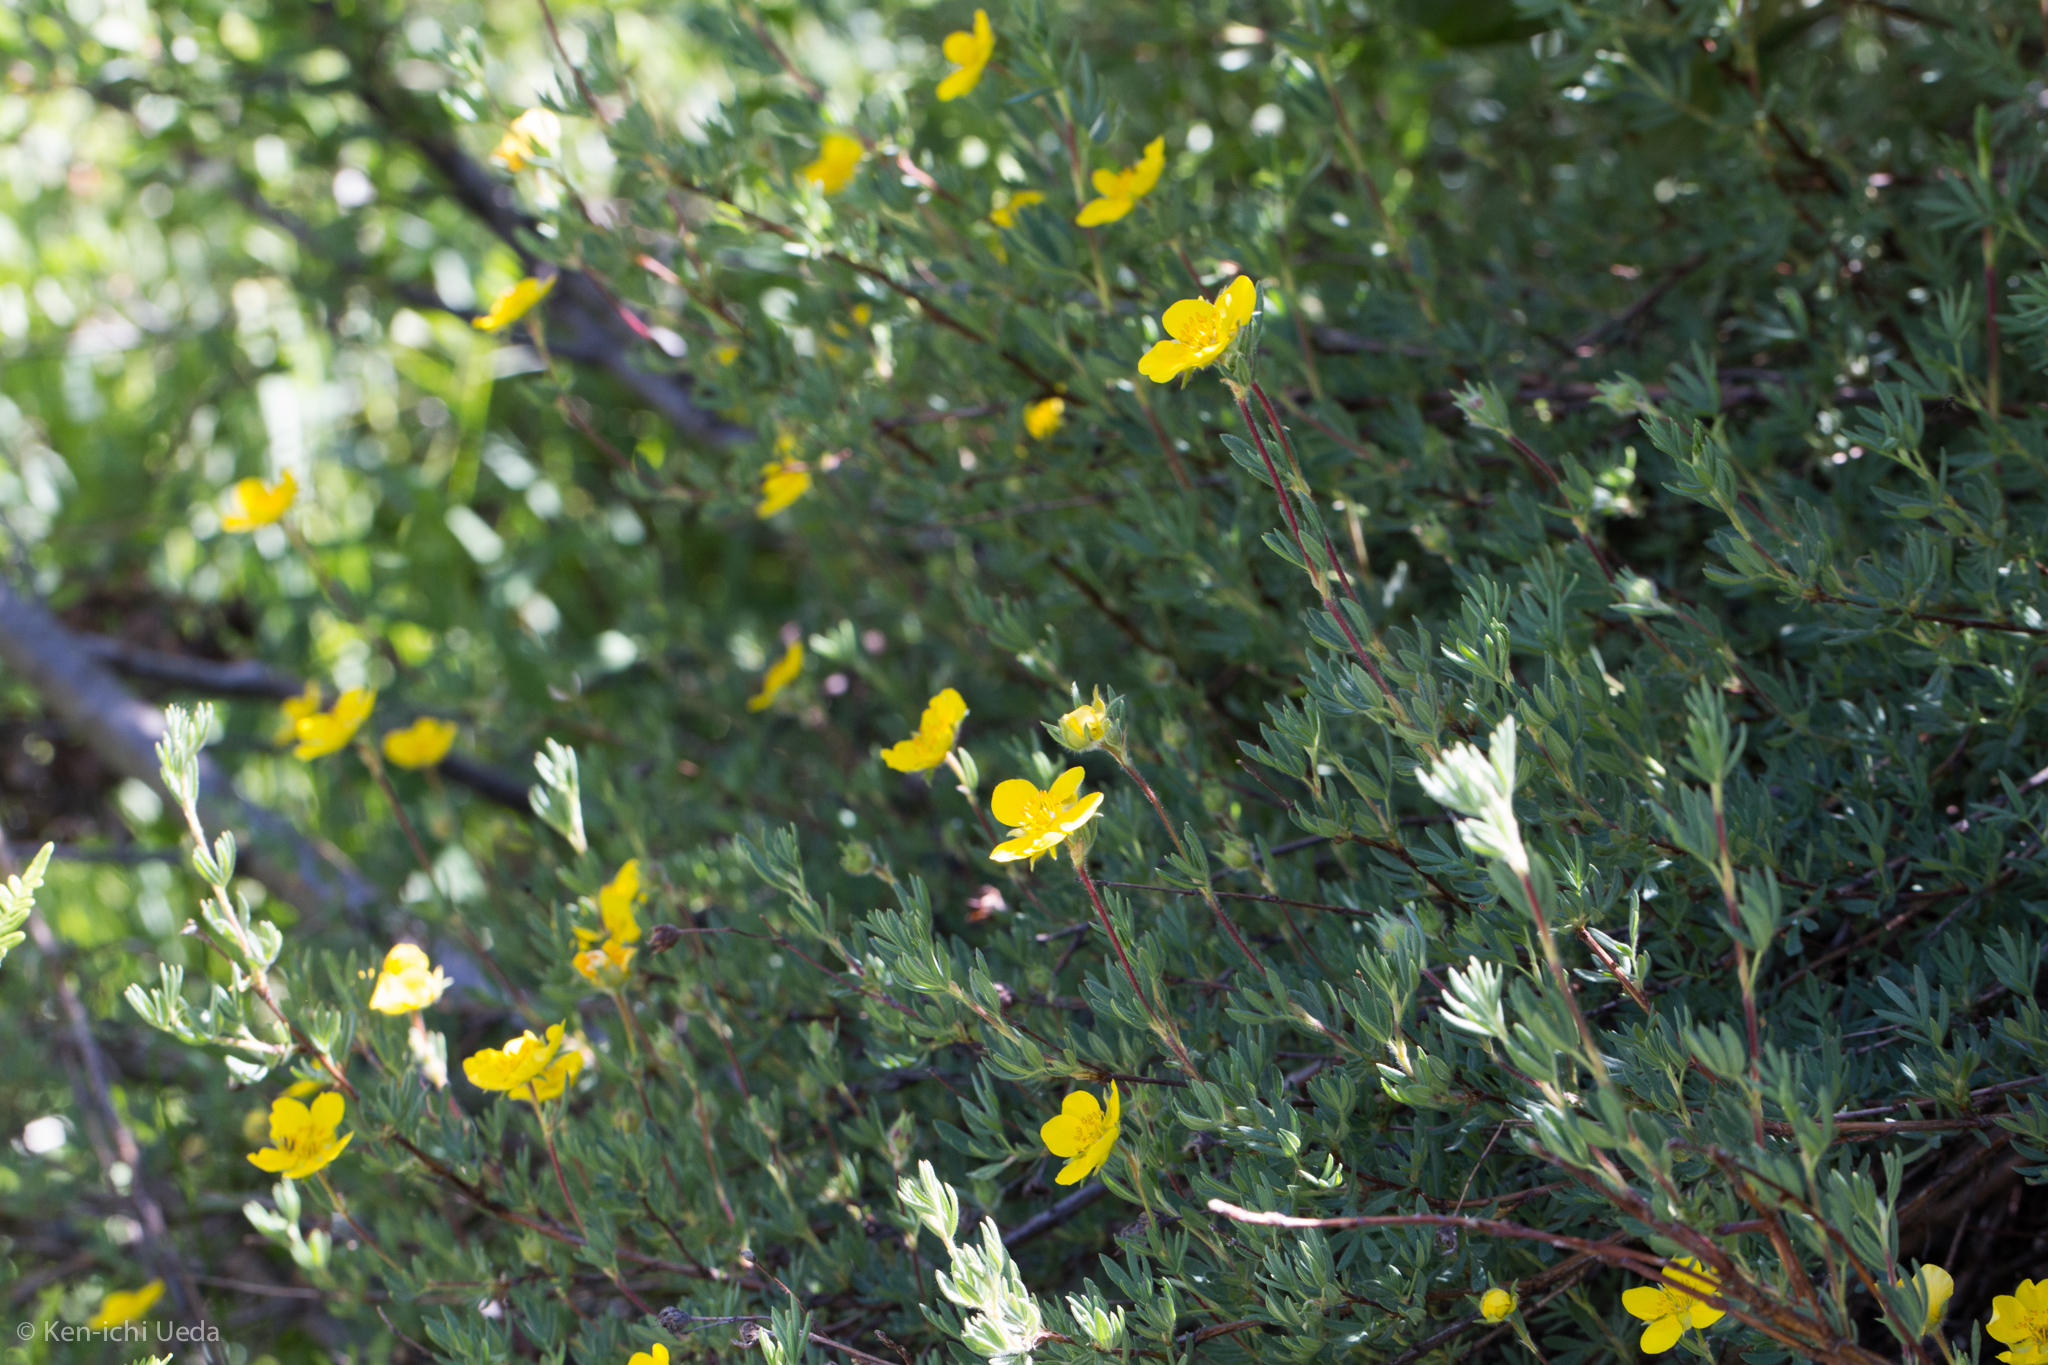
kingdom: Plantae
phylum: Tracheophyta
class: Magnoliopsida
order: Rosales
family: Rosaceae
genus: Dasiphora
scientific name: Dasiphora fruticosa
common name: Shrubby cinquefoil
